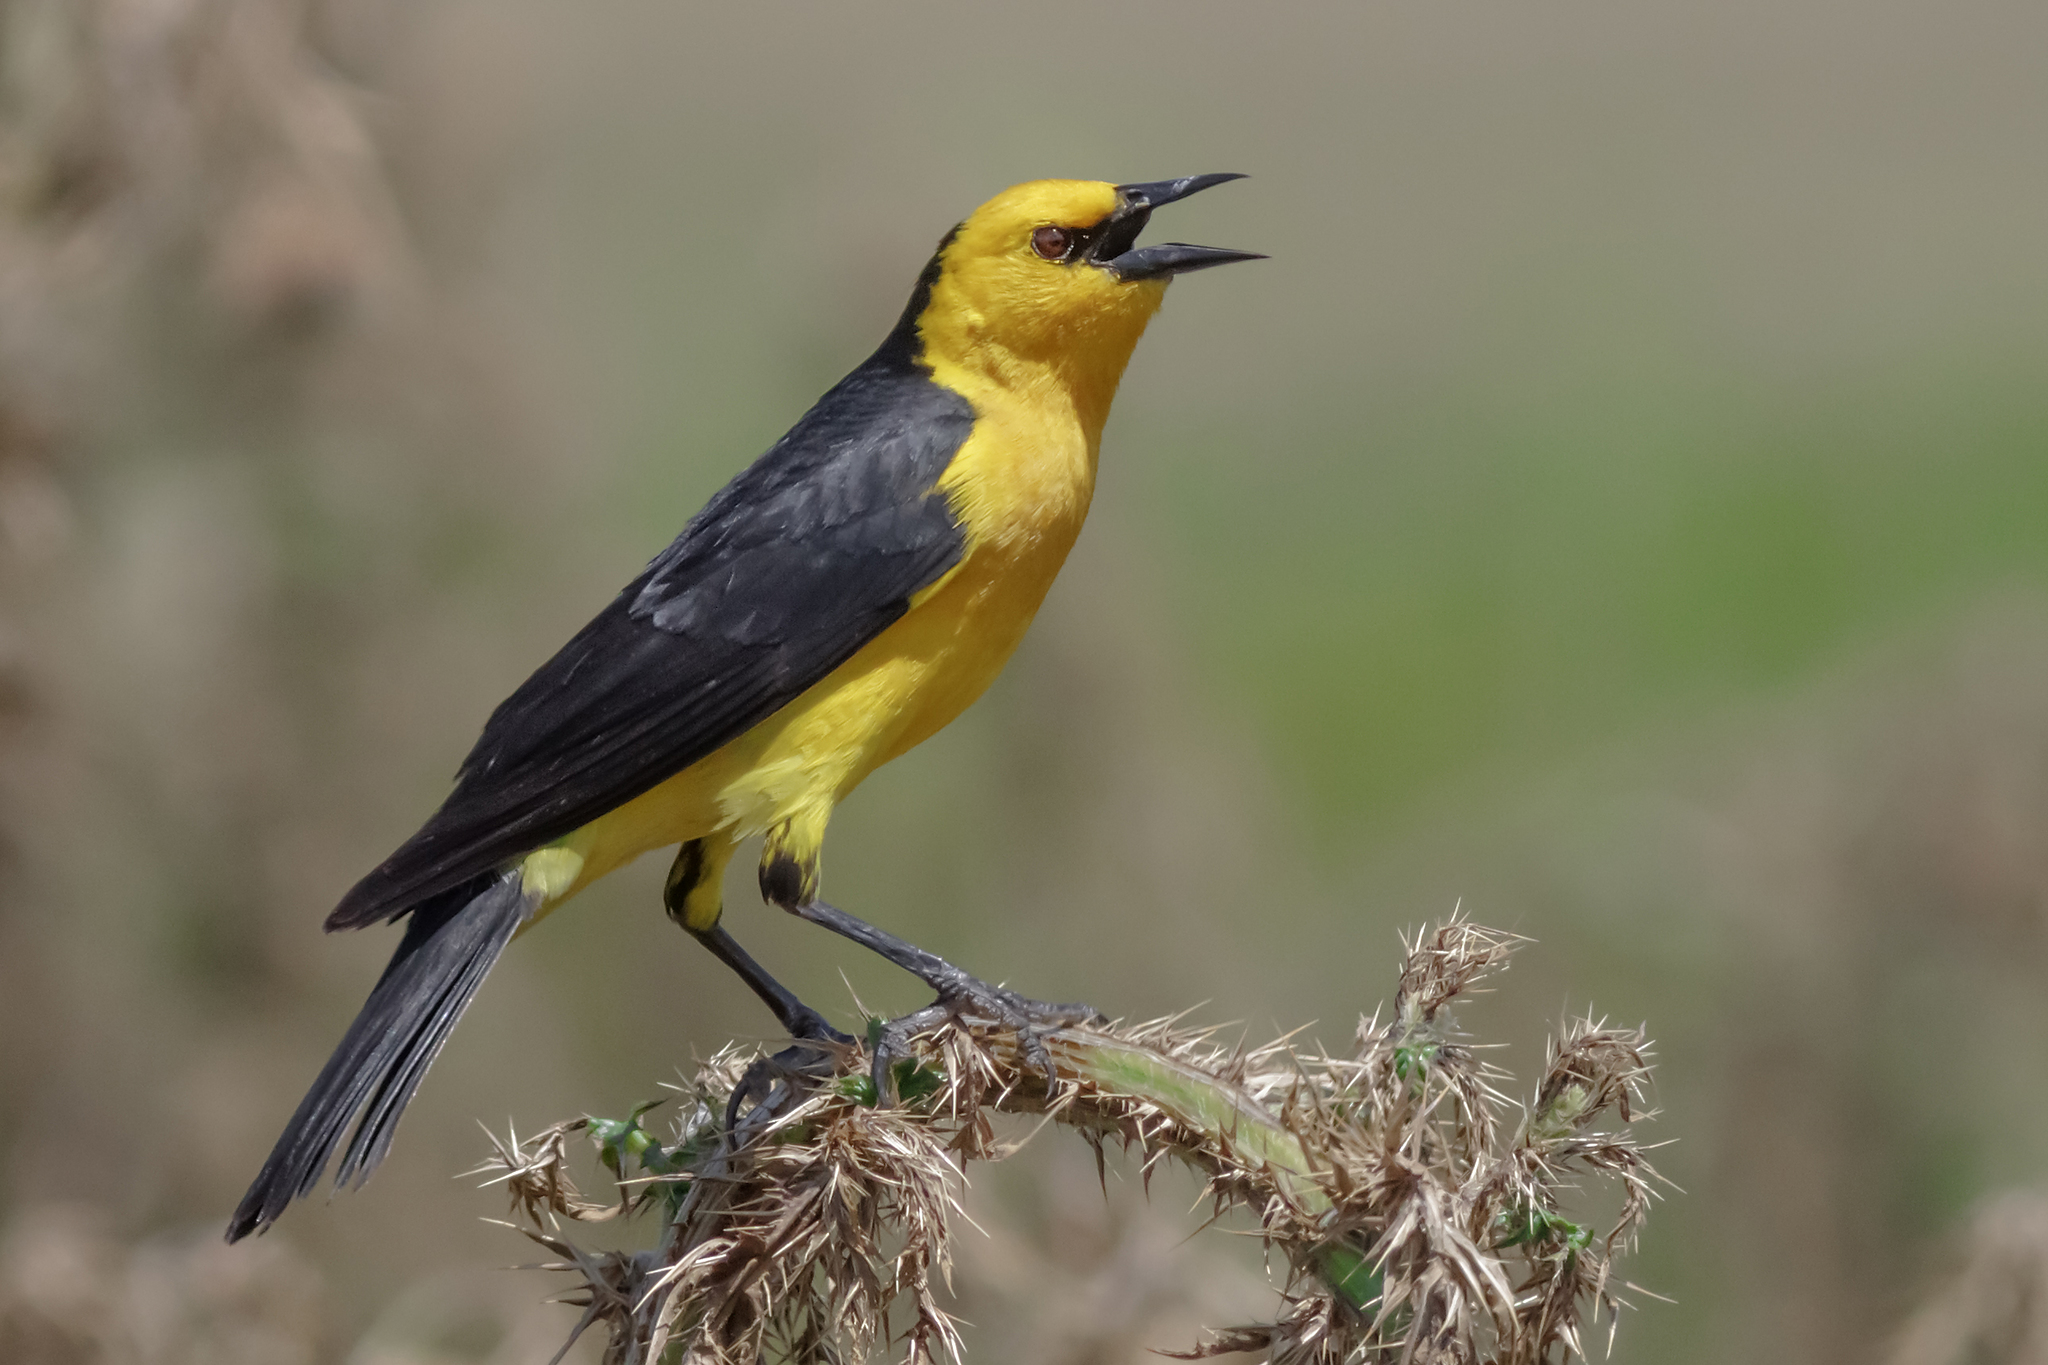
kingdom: Animalia
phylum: Chordata
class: Aves
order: Passeriformes
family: Icteridae
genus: Xanthopsar
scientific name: Xanthopsar flavus
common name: Saffron-cowled blackbird
